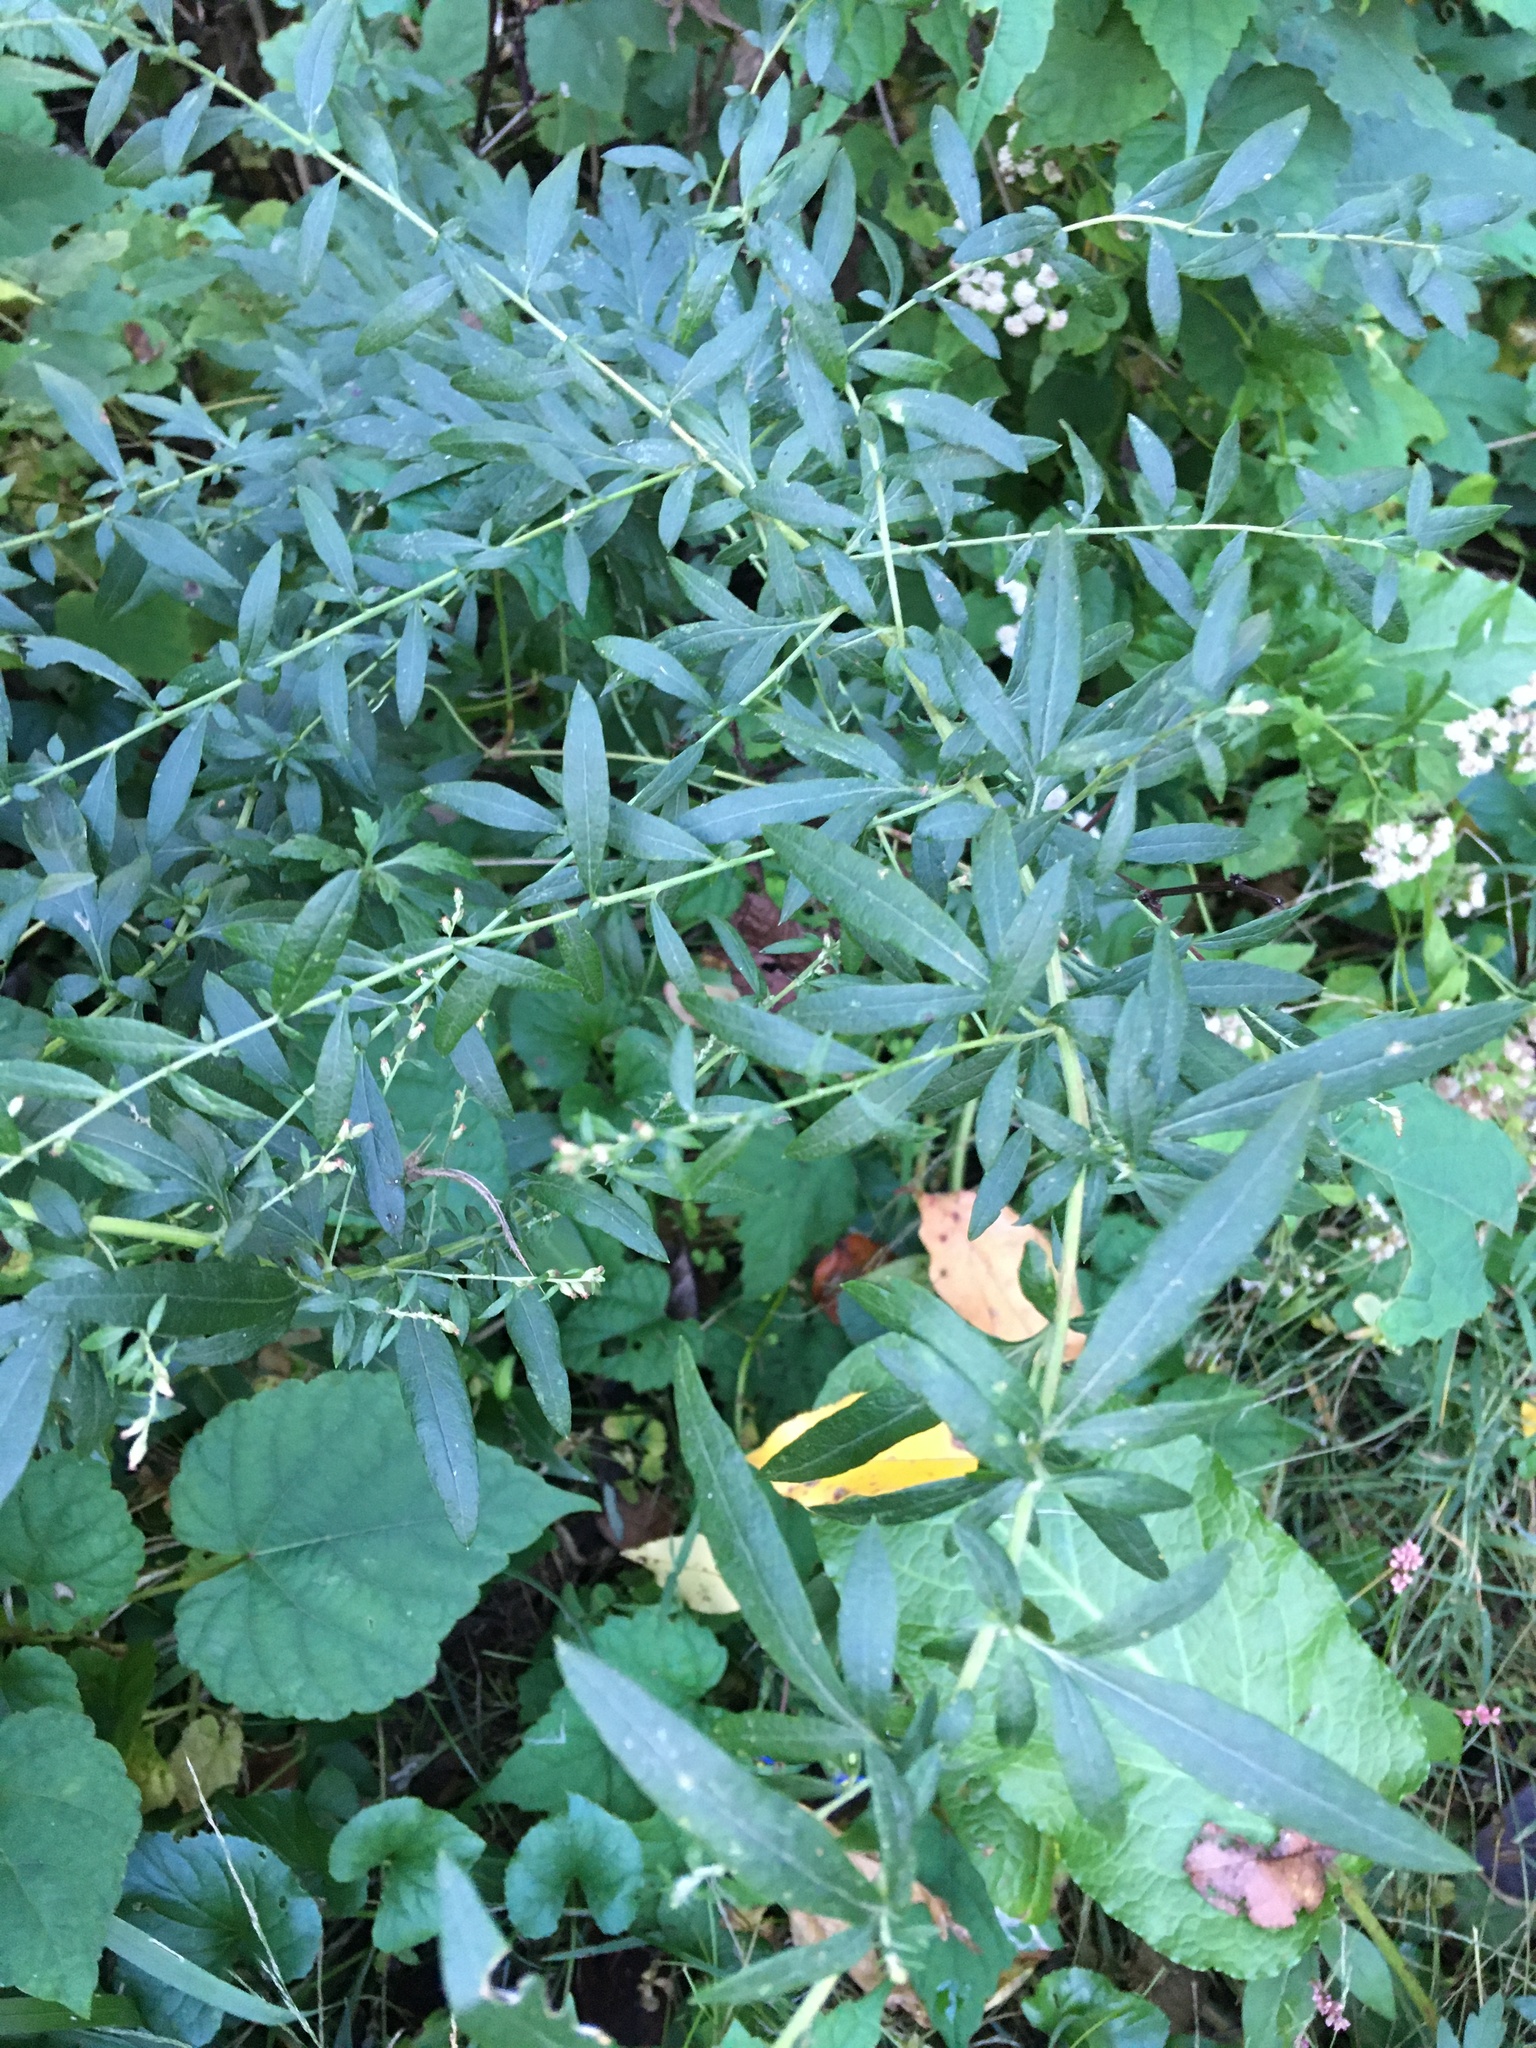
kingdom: Plantae
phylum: Tracheophyta
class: Magnoliopsida
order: Asterales
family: Asteraceae
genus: Artemisia
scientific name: Artemisia vulgaris
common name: Mugwort
